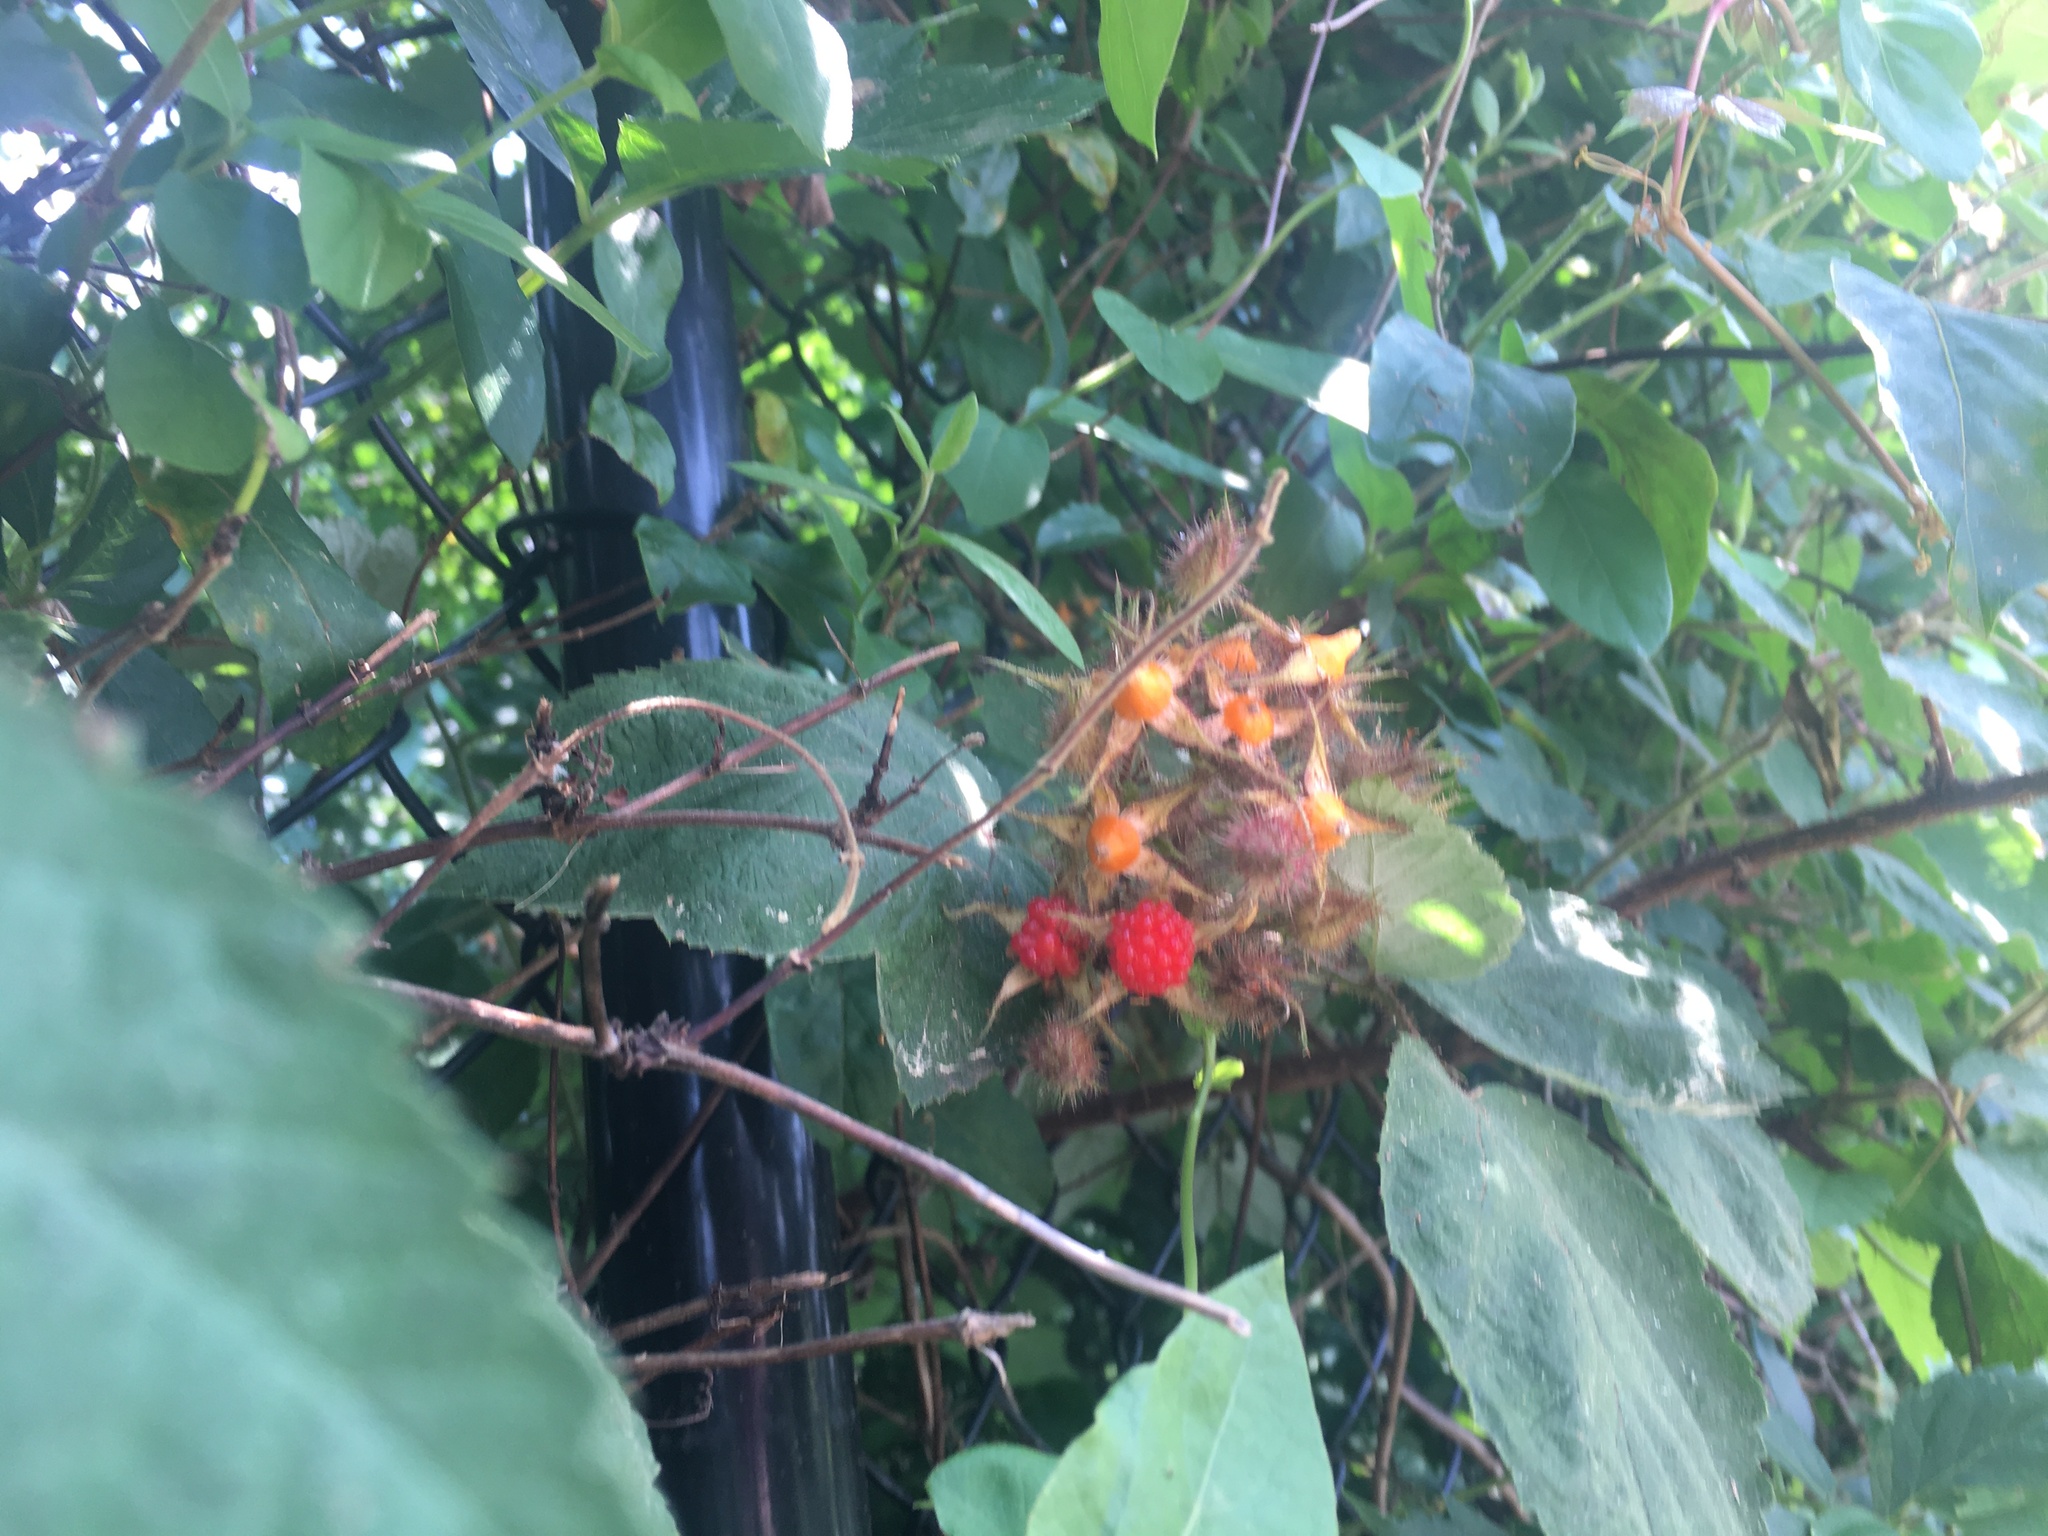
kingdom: Plantae
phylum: Tracheophyta
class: Magnoliopsida
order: Rosales
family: Rosaceae
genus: Rubus
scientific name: Rubus phoenicolasius
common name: Japanese wineberry
